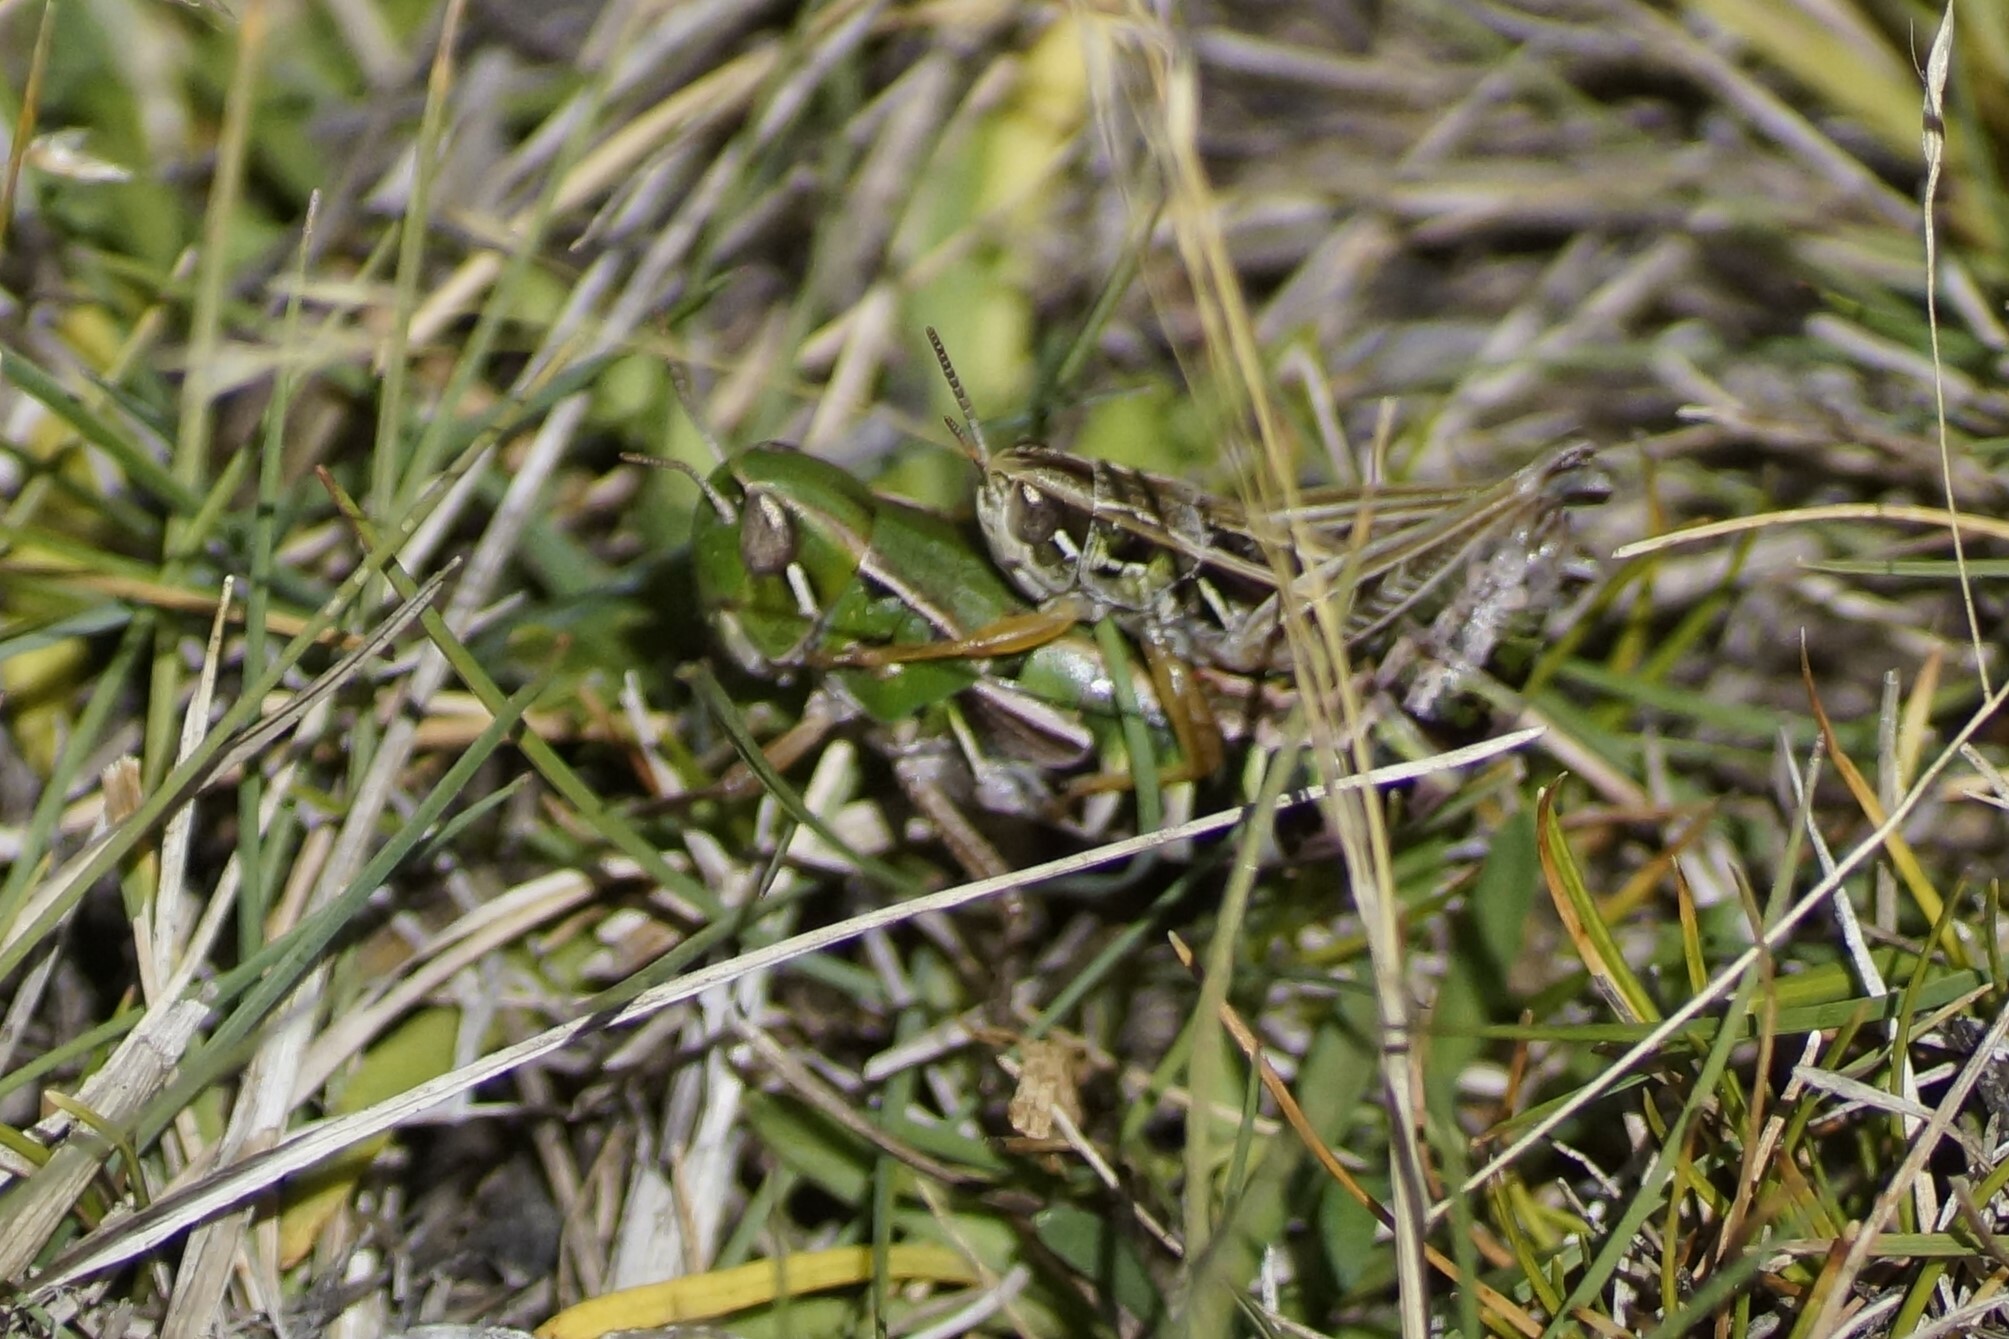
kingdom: Animalia
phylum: Arthropoda
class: Insecta
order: Orthoptera
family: Acrididae
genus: Kosciuscola
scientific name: Kosciuscola tasmanicus
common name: Tasmanian skyhopper
